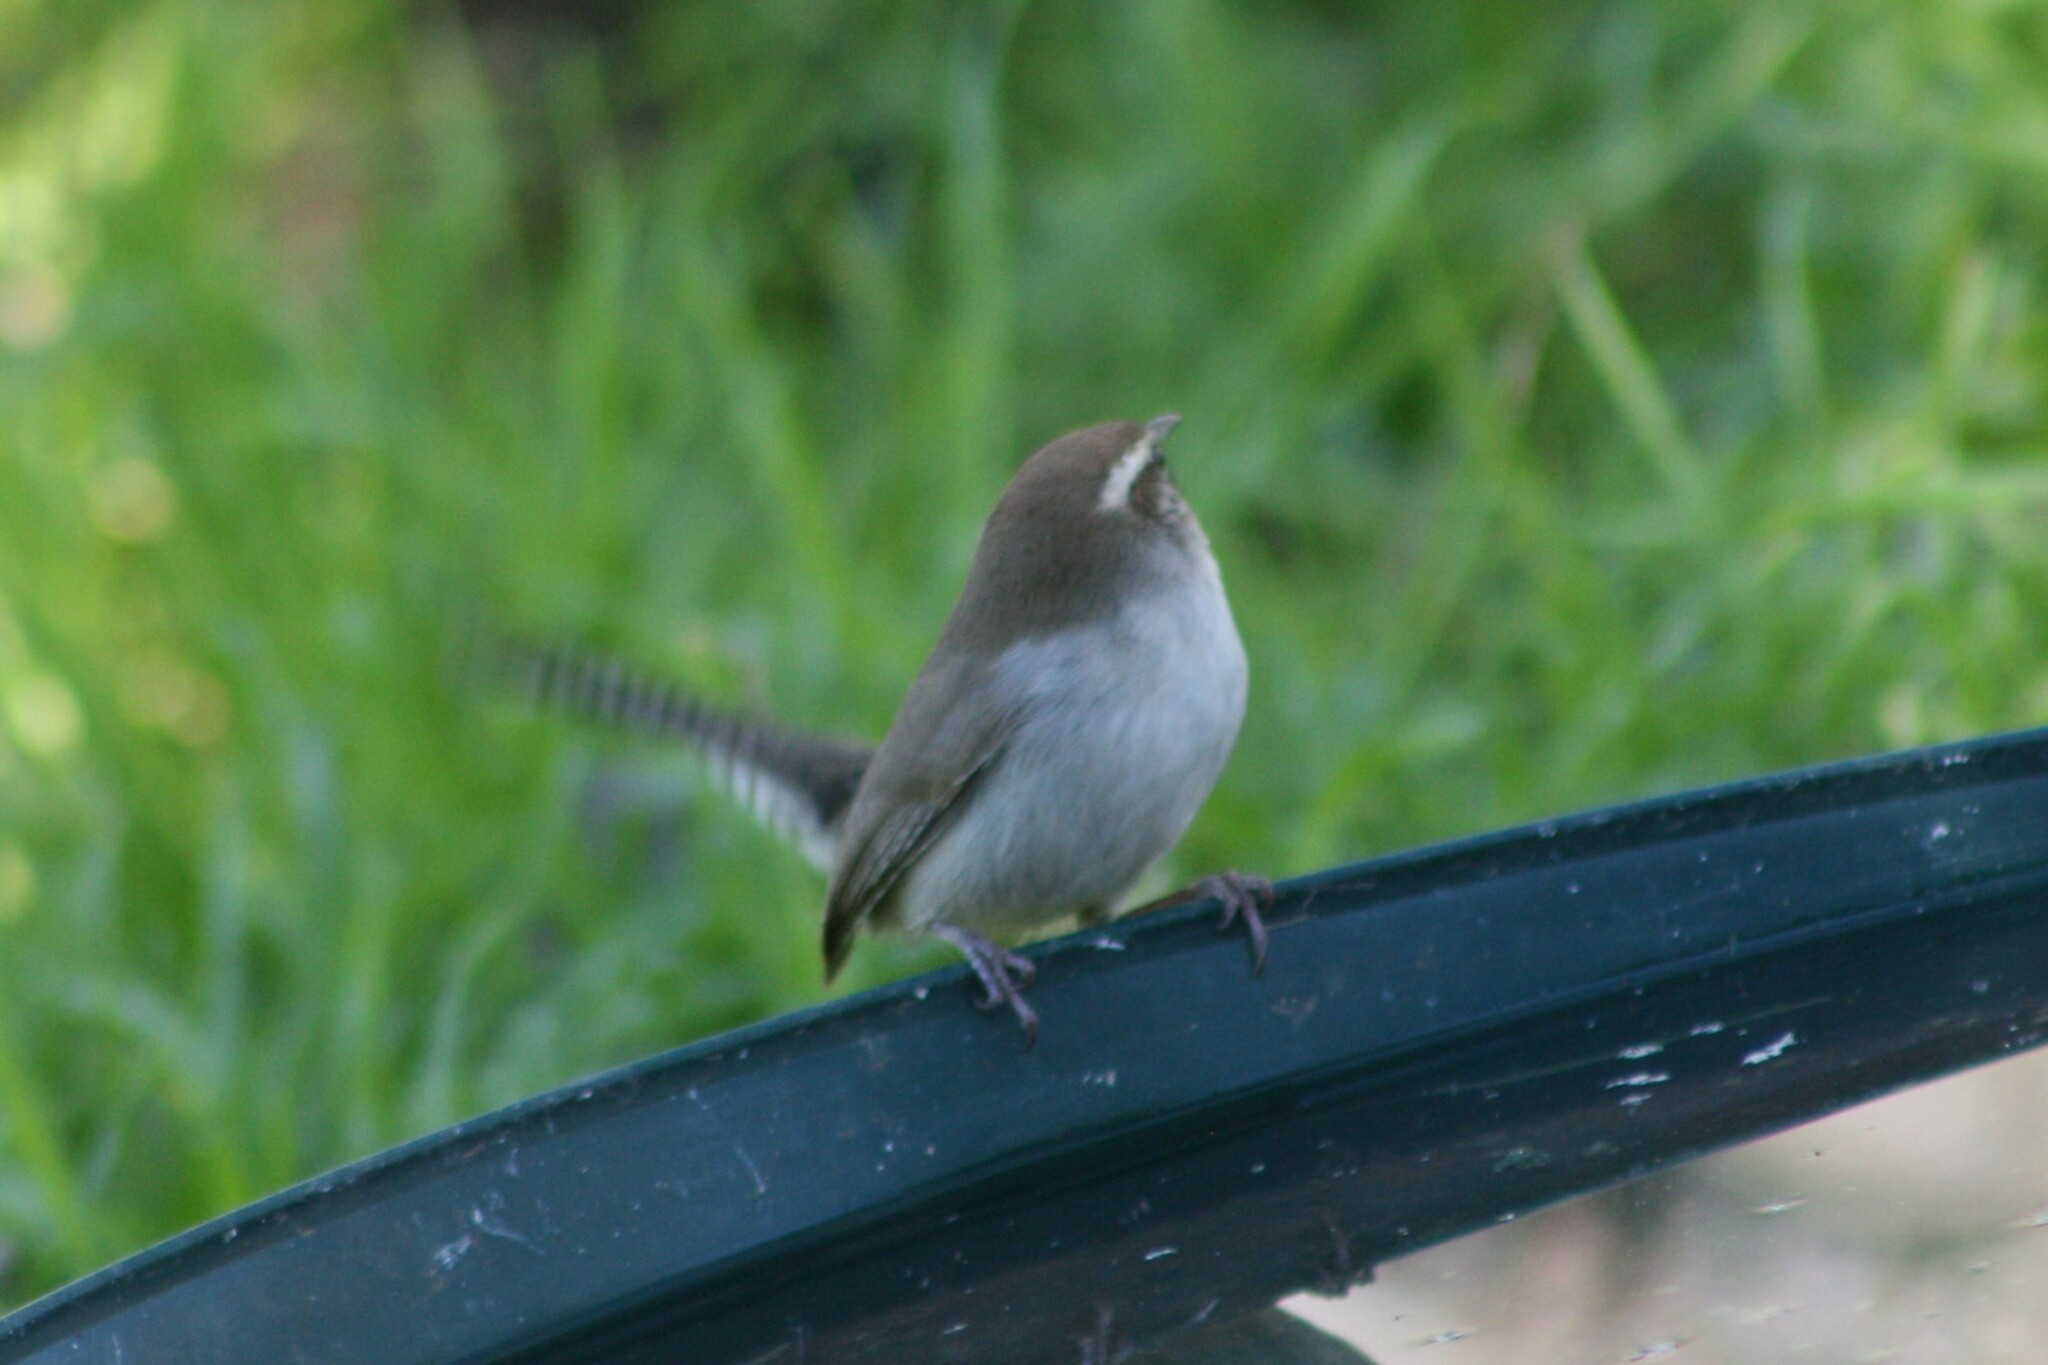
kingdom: Animalia
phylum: Chordata
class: Aves
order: Passeriformes
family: Troglodytidae
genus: Thryomanes
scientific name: Thryomanes bewickii
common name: Bewick's wren
